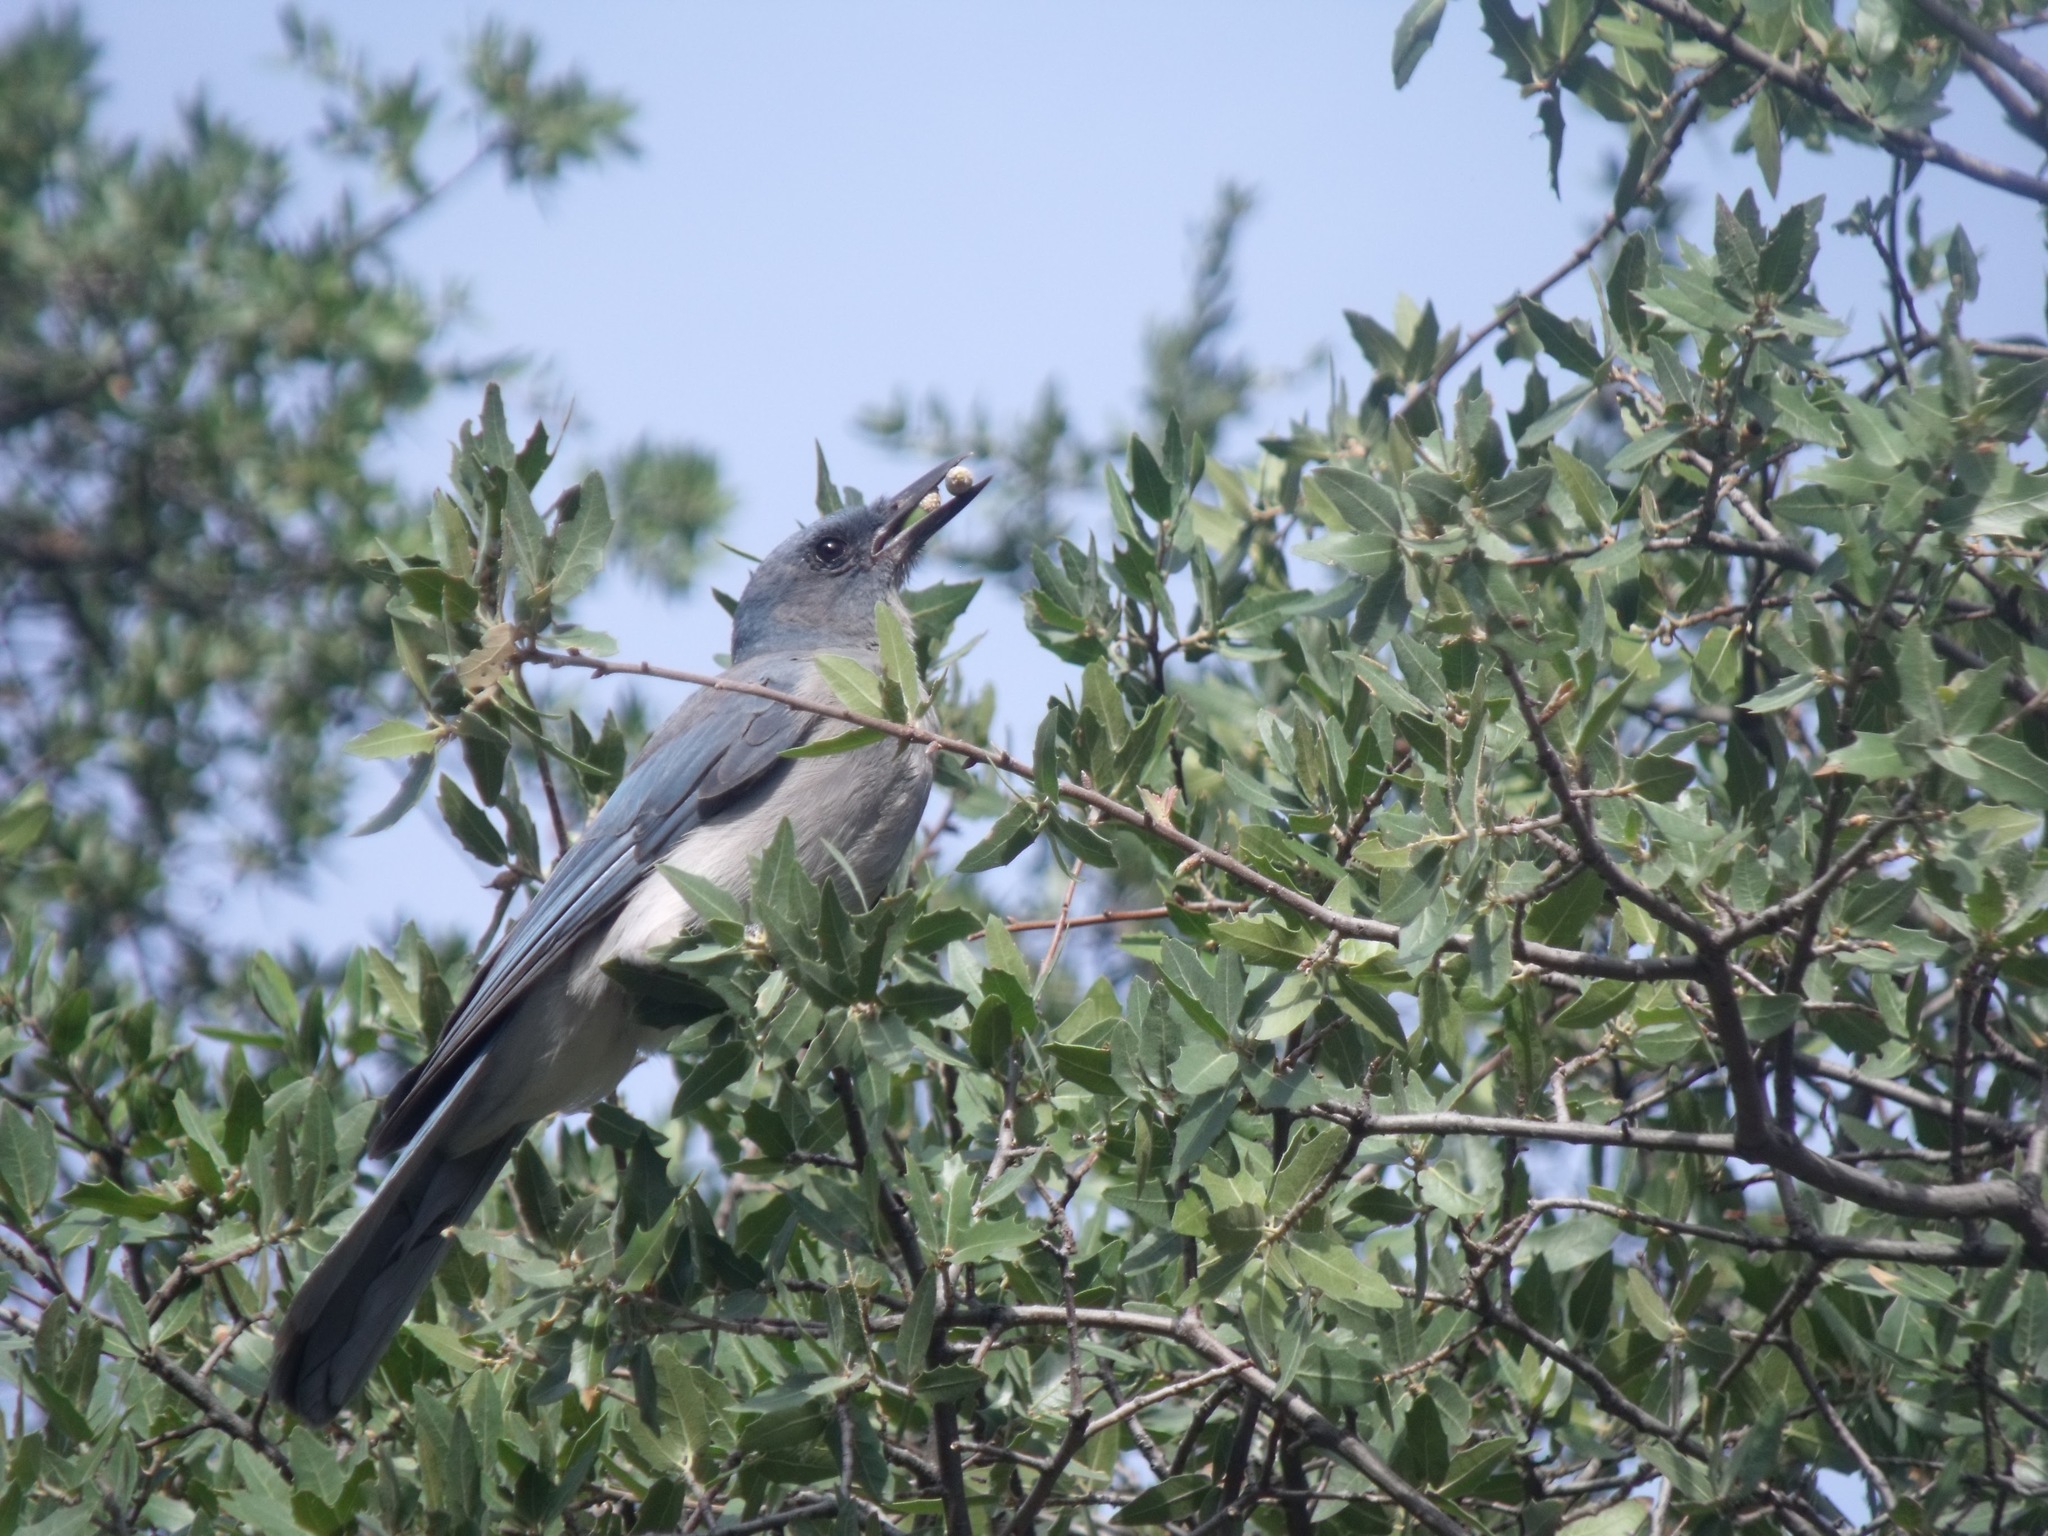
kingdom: Animalia
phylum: Chordata
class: Aves
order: Passeriformes
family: Corvidae
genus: Aphelocoma
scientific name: Aphelocoma wollweberi
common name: Mexican jay
